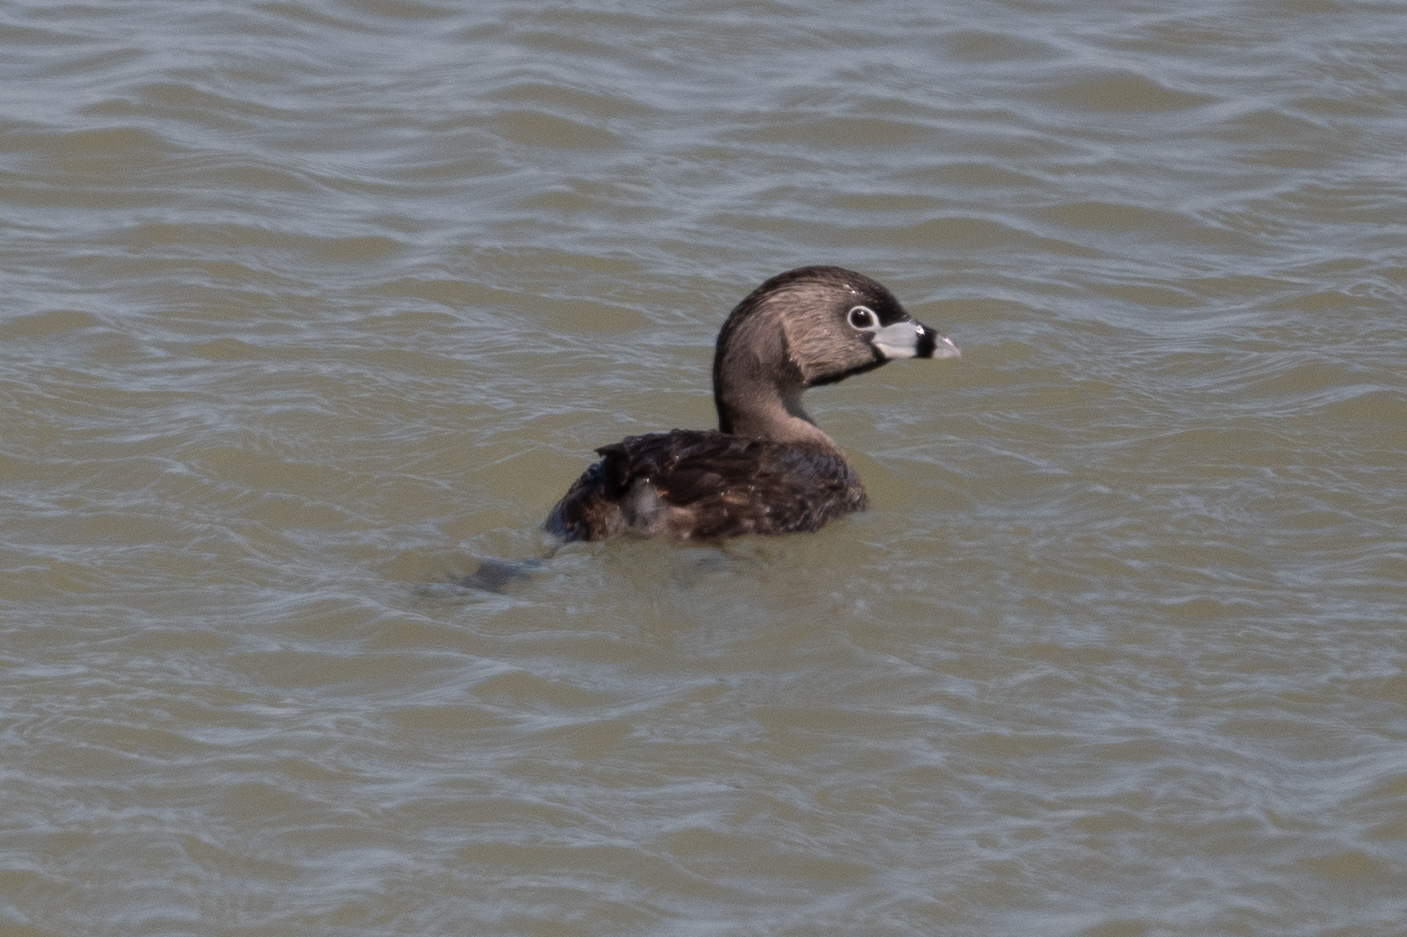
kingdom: Animalia
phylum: Chordata
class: Aves
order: Podicipediformes
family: Podicipedidae
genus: Podilymbus
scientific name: Podilymbus podiceps
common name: Pied-billed grebe
